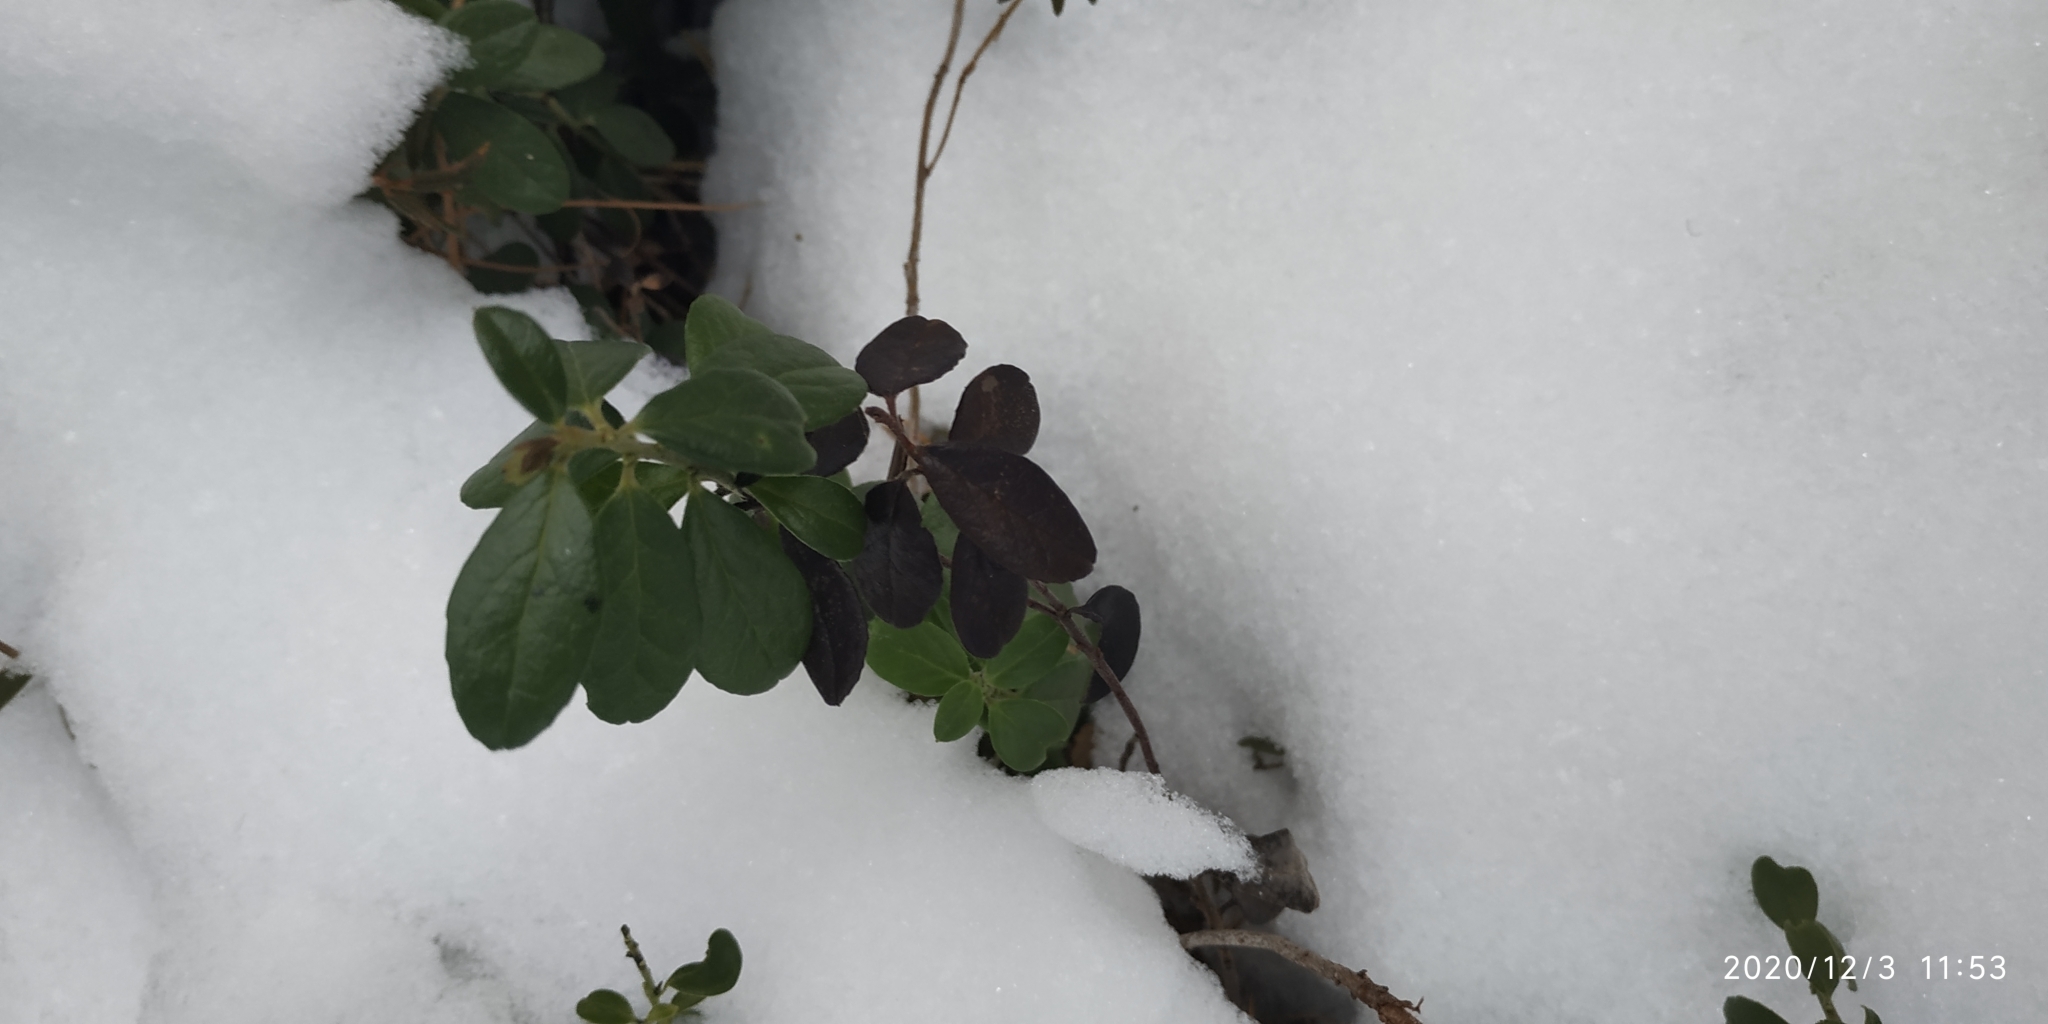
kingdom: Plantae
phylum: Tracheophyta
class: Magnoliopsida
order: Ericales
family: Ericaceae
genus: Vaccinium
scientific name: Vaccinium vitis-idaea
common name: Cowberry
